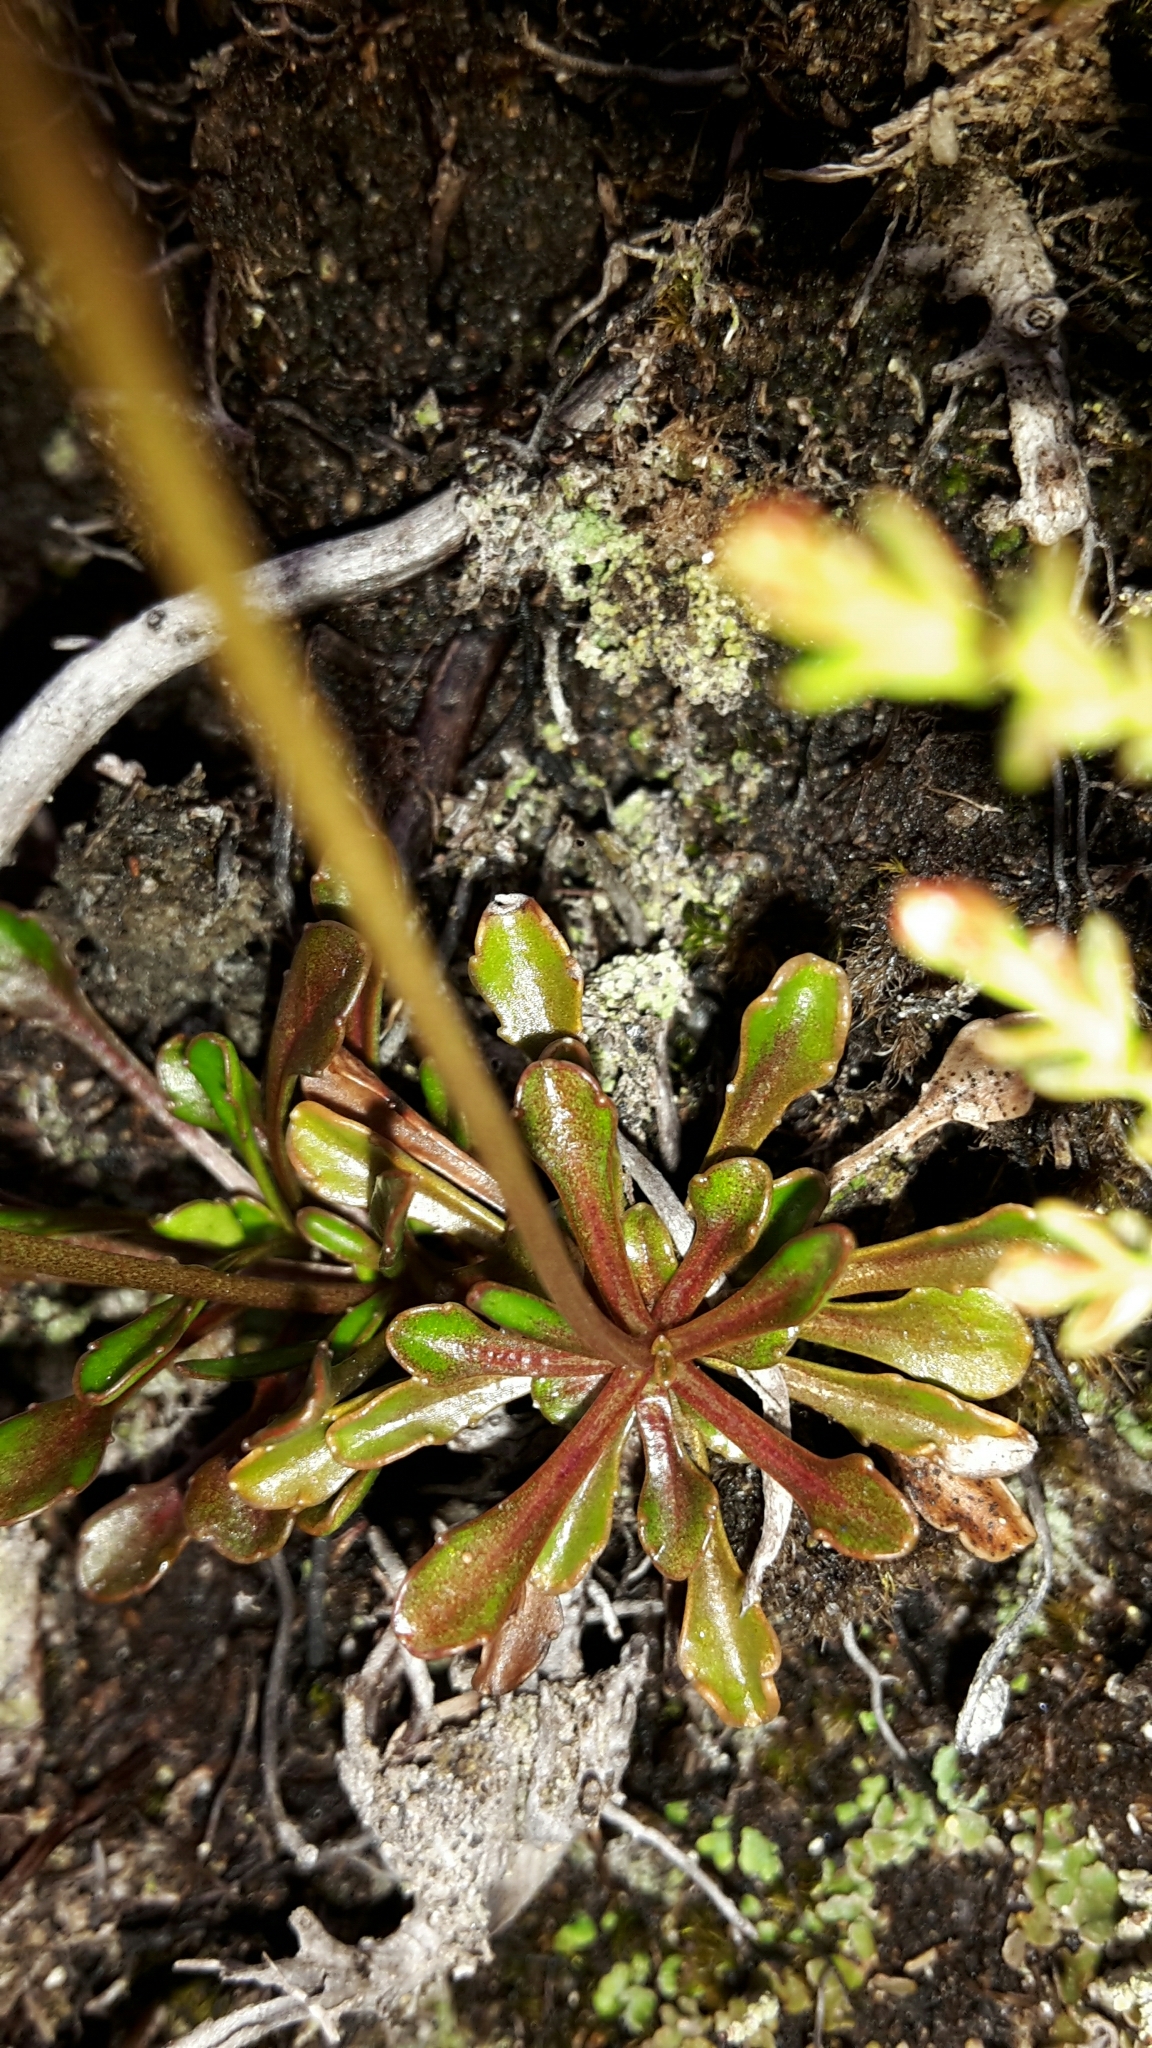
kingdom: Plantae
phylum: Tracheophyta
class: Magnoliopsida
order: Asterales
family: Campanulaceae
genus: Wahlenbergia
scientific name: Wahlenbergia pygmaea
